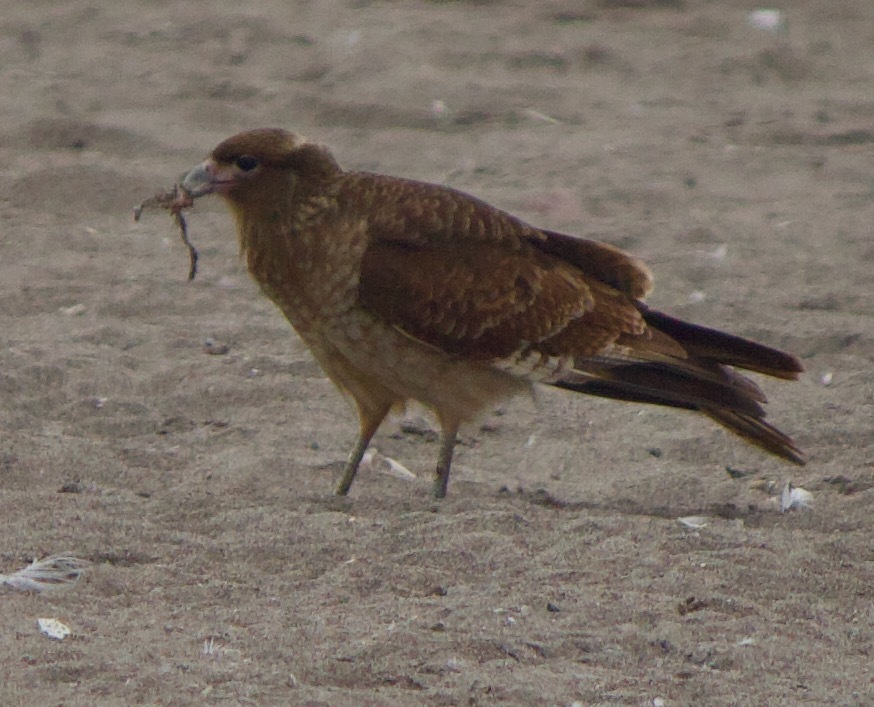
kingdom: Animalia
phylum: Chordata
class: Aves
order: Falconiformes
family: Falconidae
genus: Daptrius
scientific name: Daptrius
